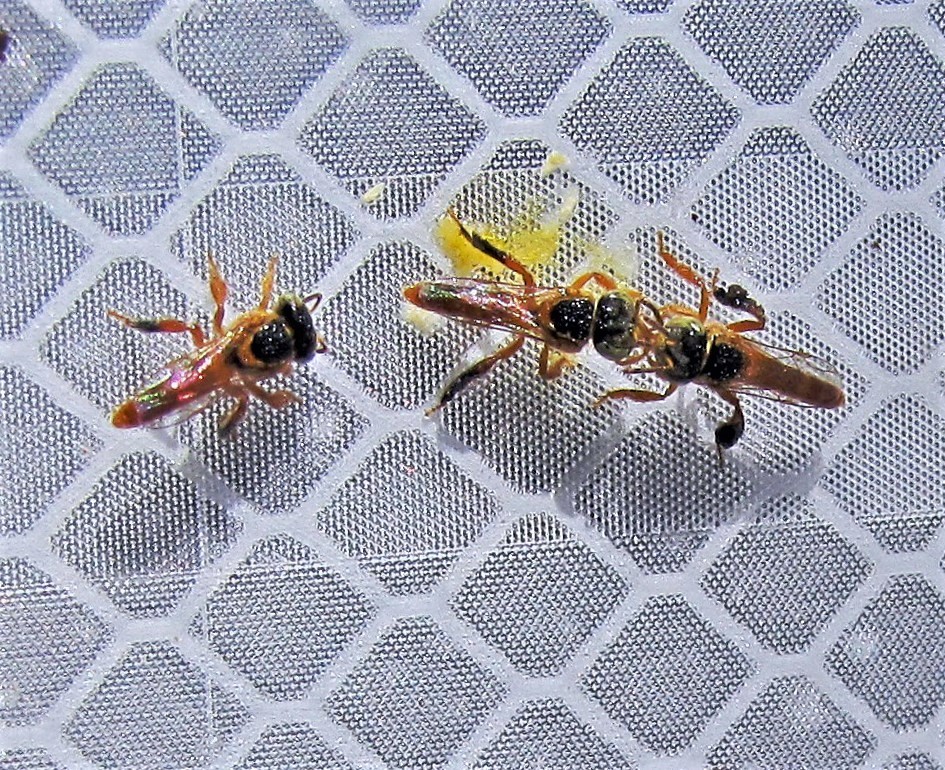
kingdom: Animalia
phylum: Arthropoda
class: Insecta
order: Hymenoptera
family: Apidae
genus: Tetragonisca
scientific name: Tetragonisca fiebrigi
